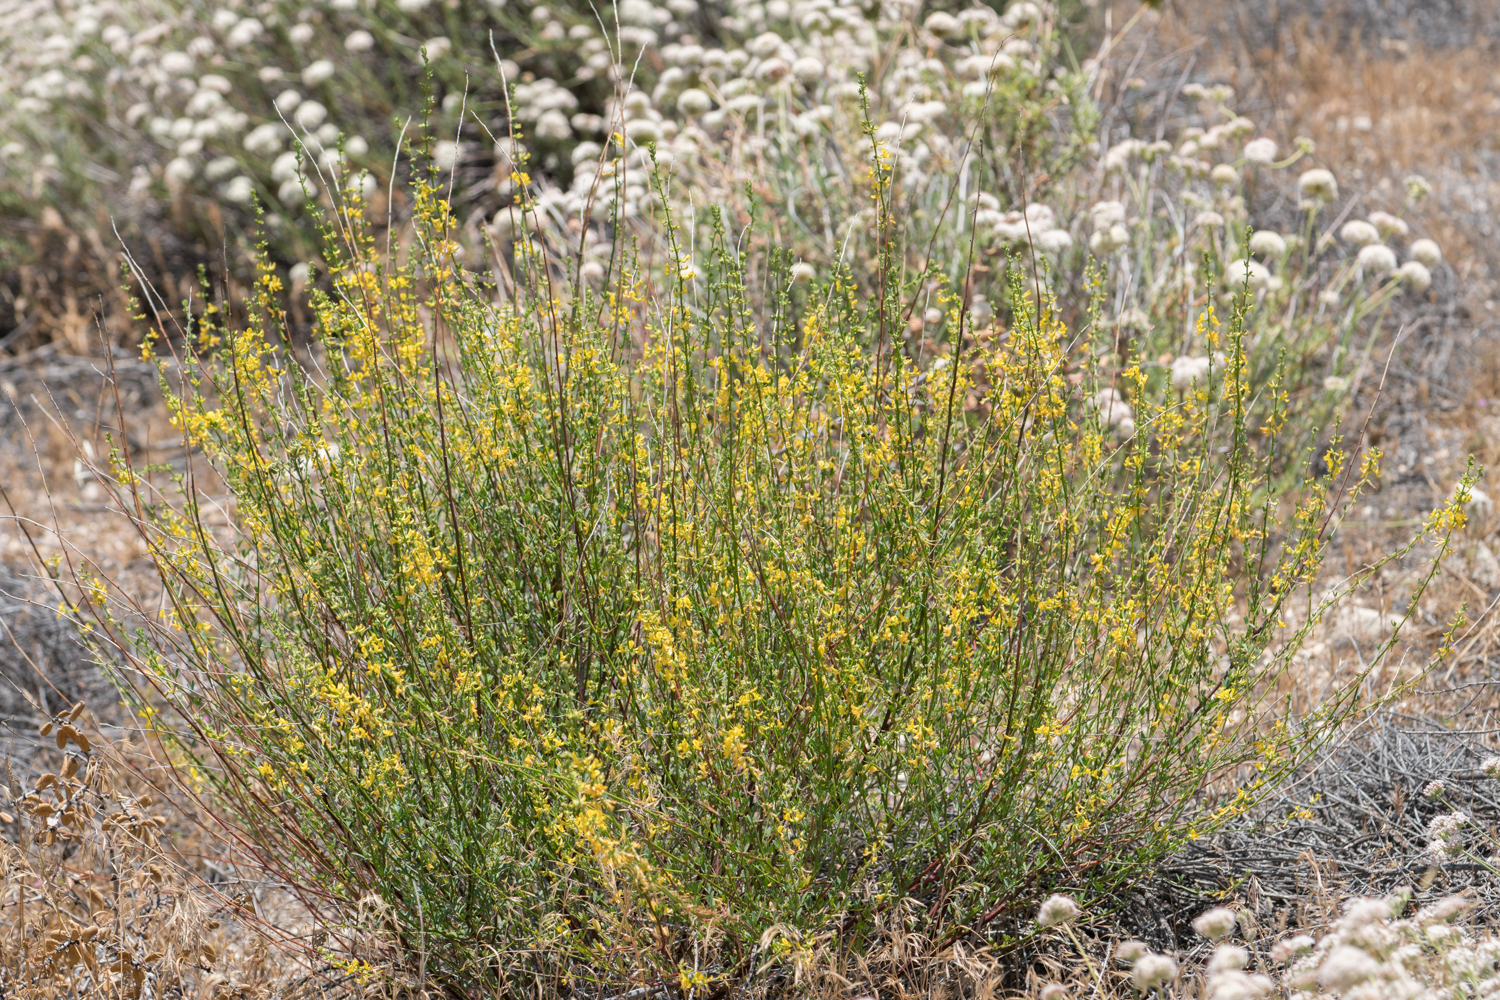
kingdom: Plantae
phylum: Tracheophyta
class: Magnoliopsida
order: Fabales
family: Fabaceae
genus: Acmispon
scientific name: Acmispon glaber
